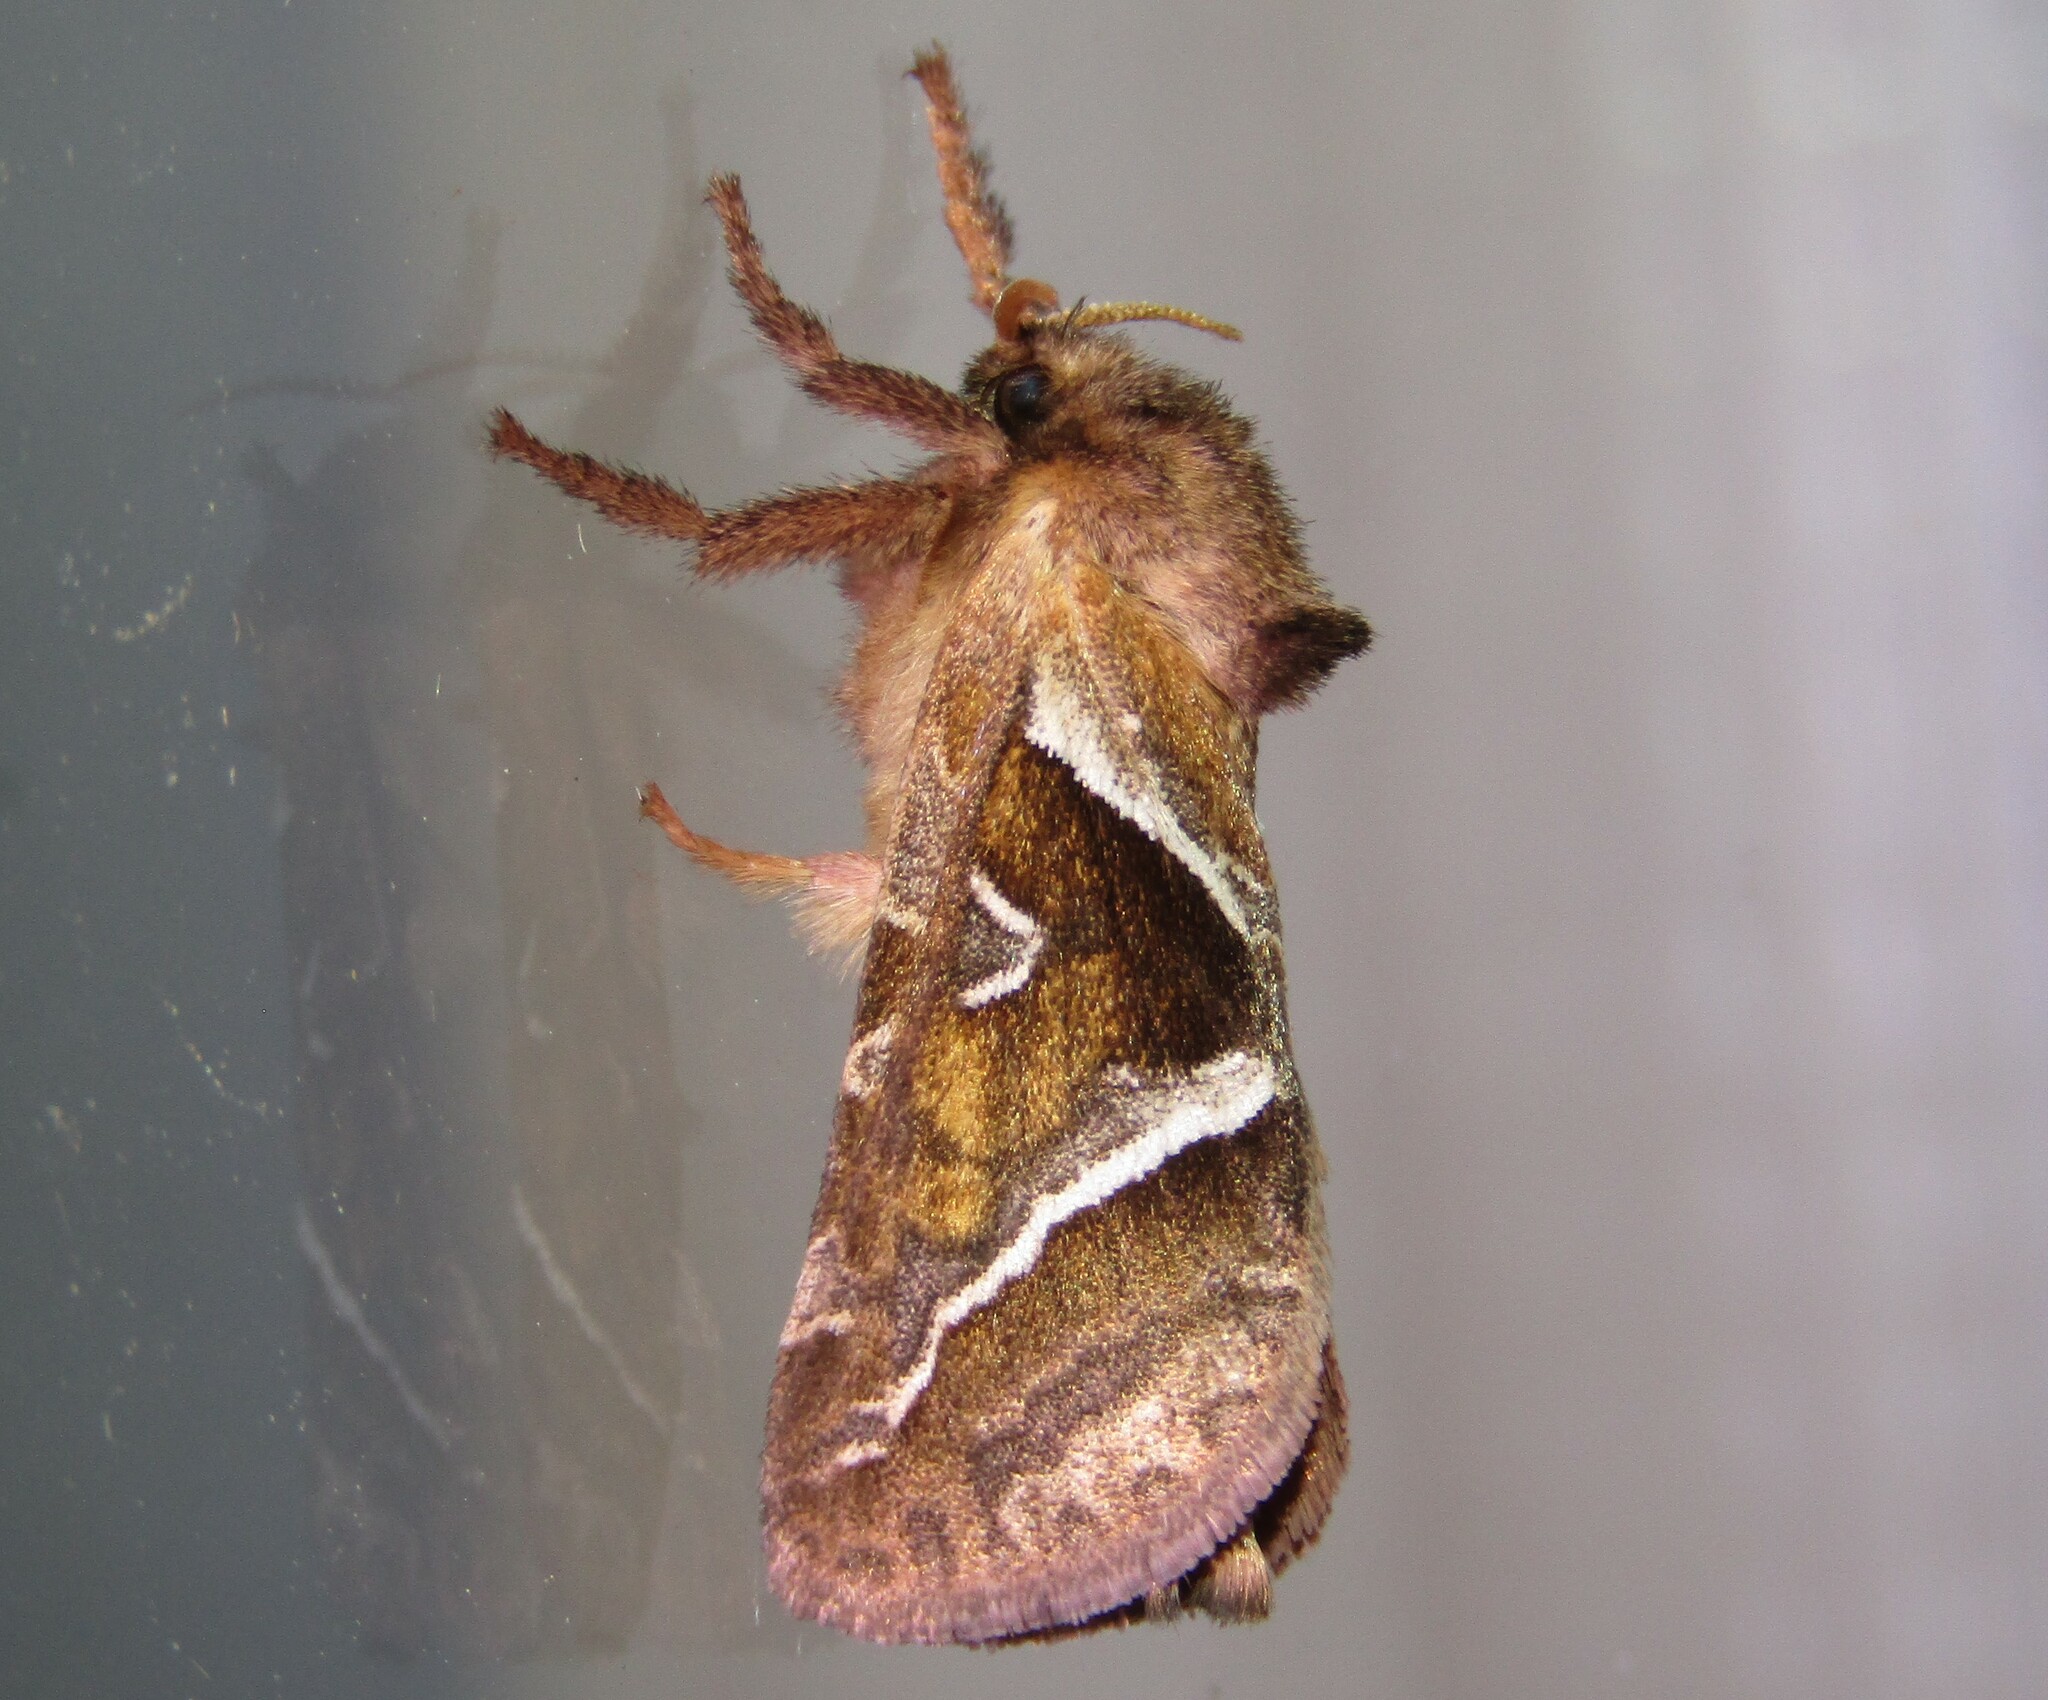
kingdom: Animalia
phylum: Arthropoda
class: Insecta
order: Lepidoptera
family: Hepialidae
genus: Triodia
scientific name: Triodia sylvina
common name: Orange swift
